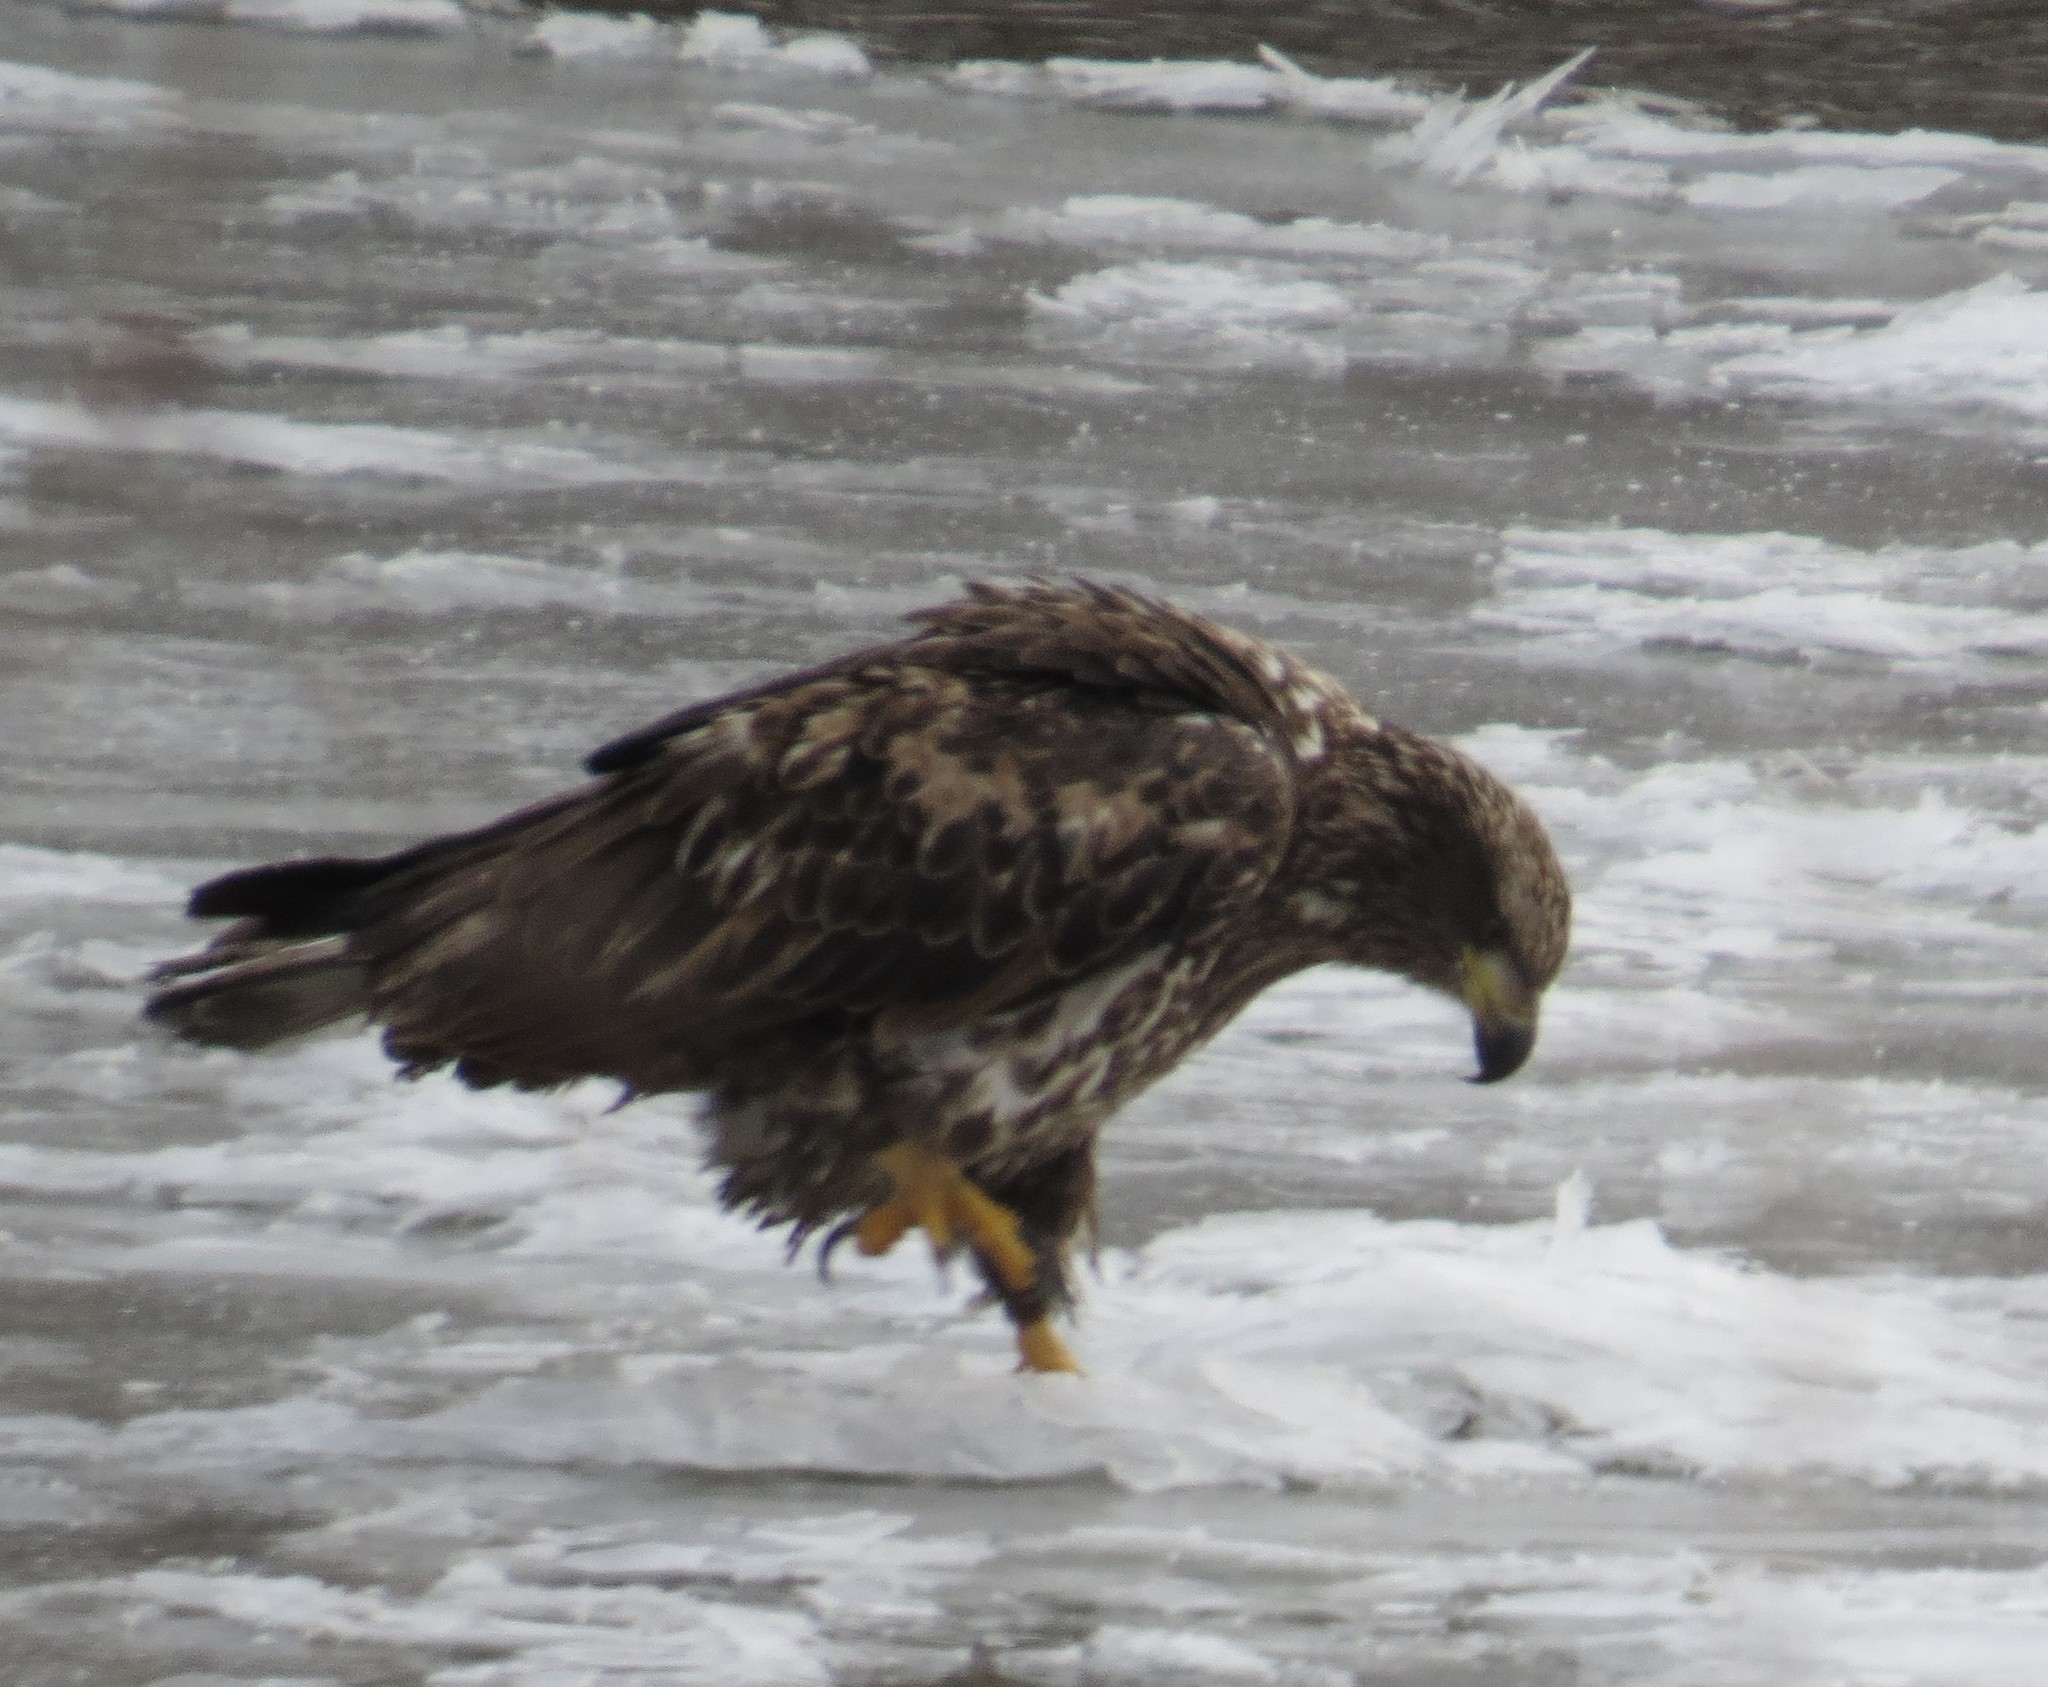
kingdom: Animalia
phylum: Chordata
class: Aves
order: Accipitriformes
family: Accipitridae
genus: Haliaeetus
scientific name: Haliaeetus leucocephalus
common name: Bald eagle
